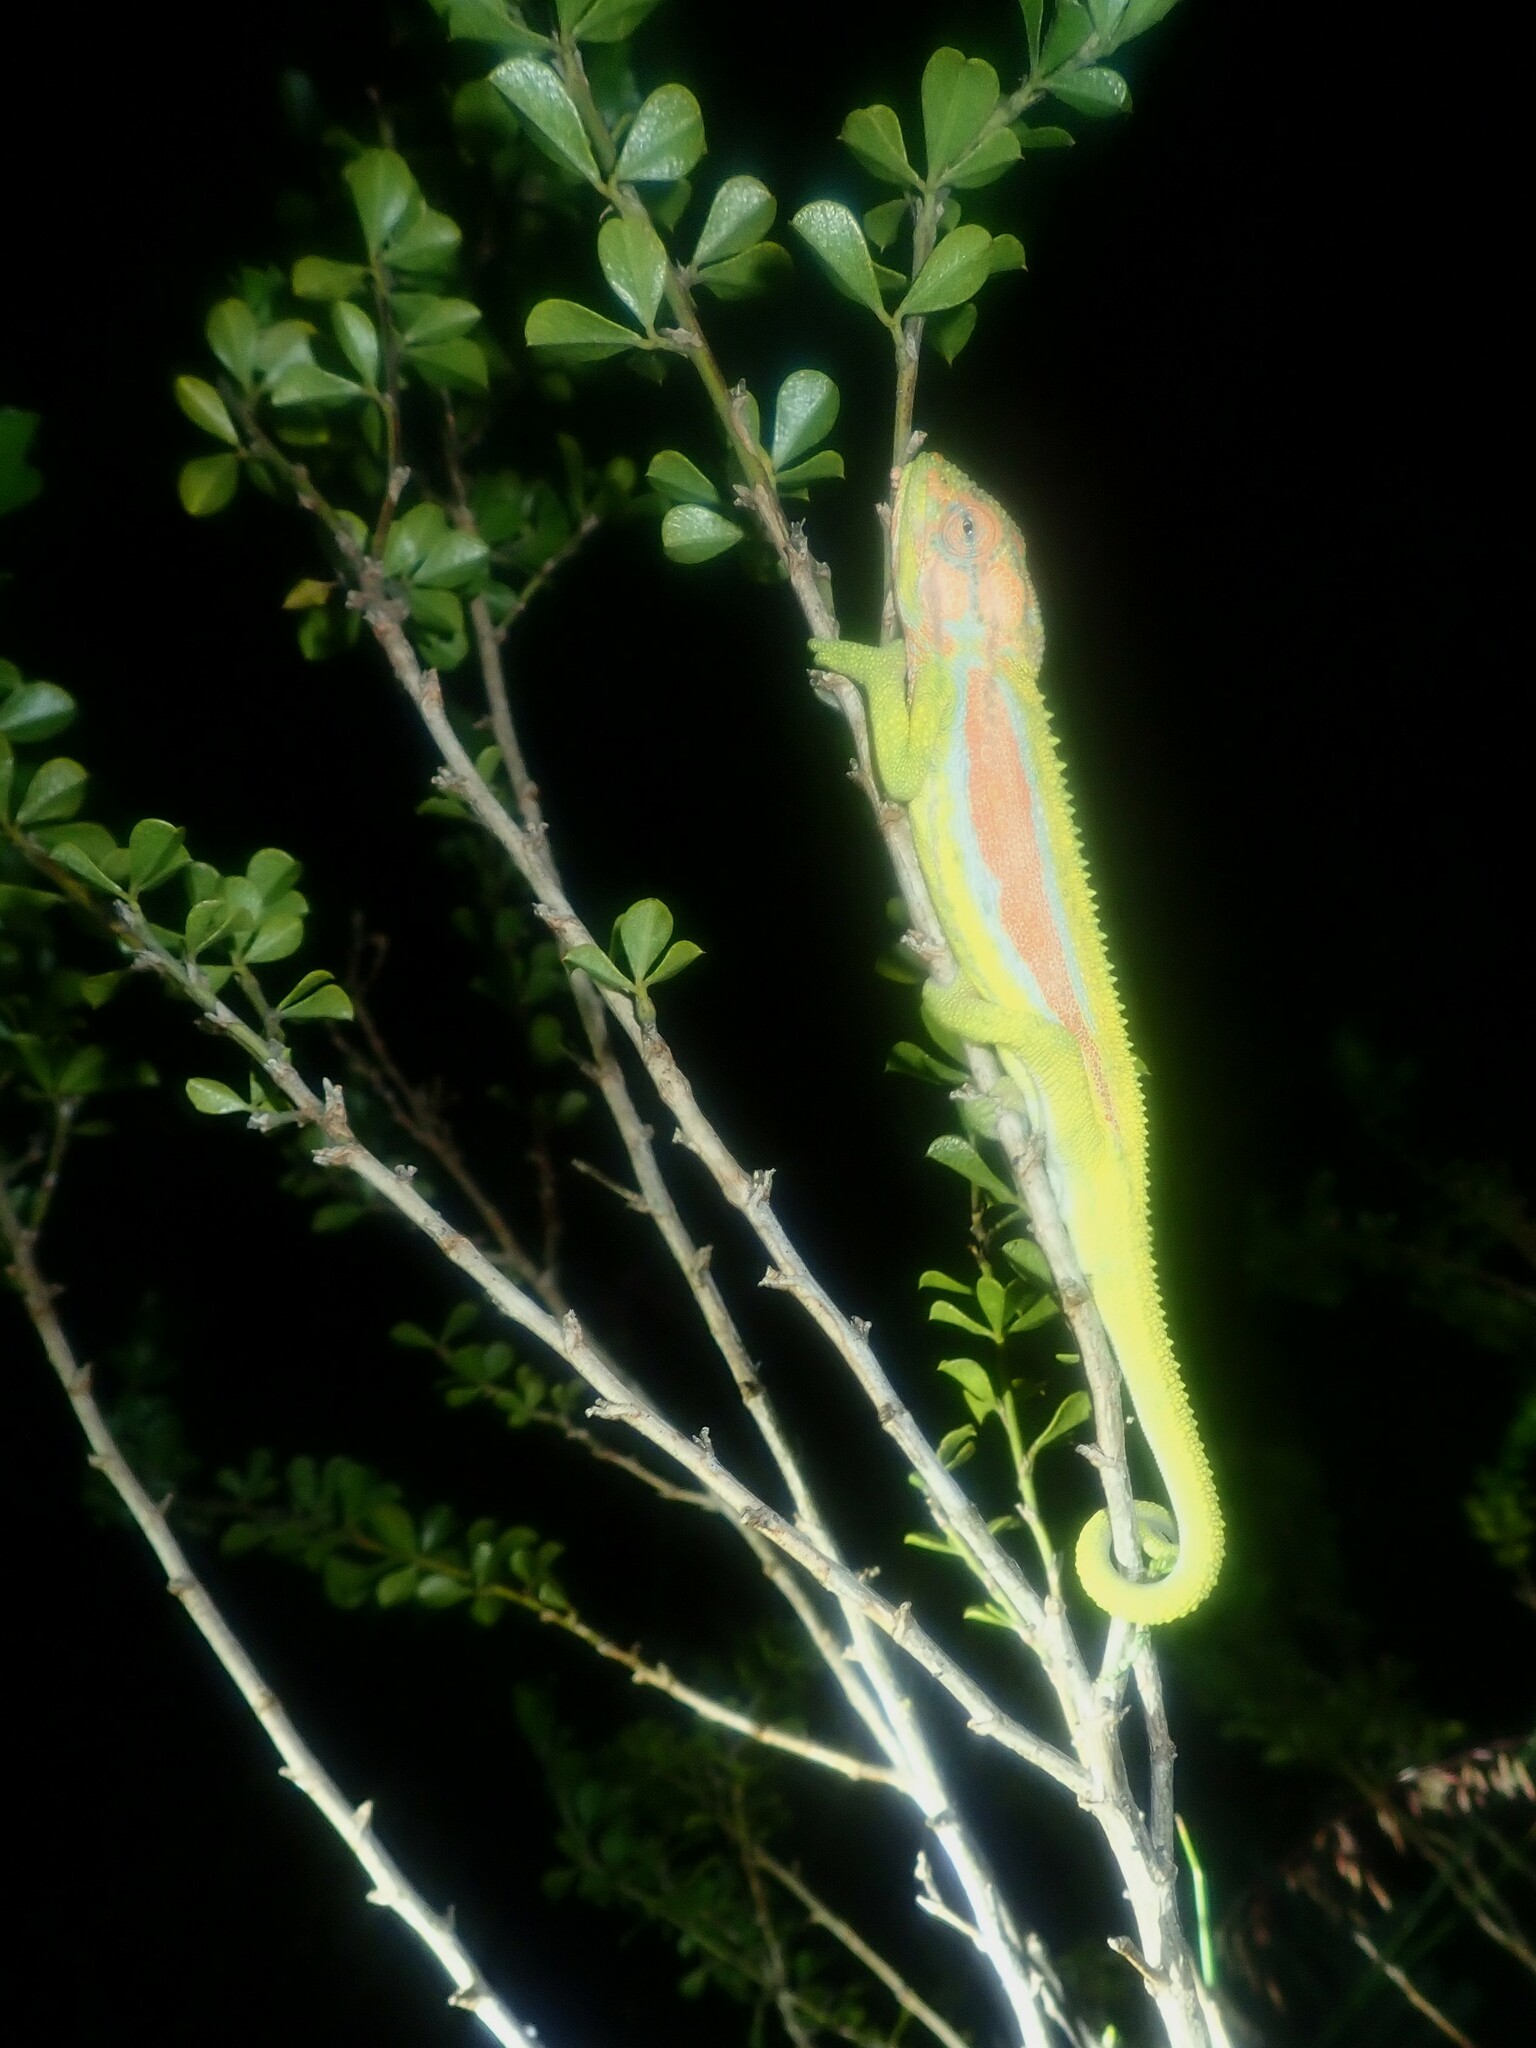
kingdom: Animalia
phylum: Chordata
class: Squamata
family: Chamaeleonidae
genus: Bradypodion
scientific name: Bradypodion pumilum
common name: Cape dwarf chameleon
